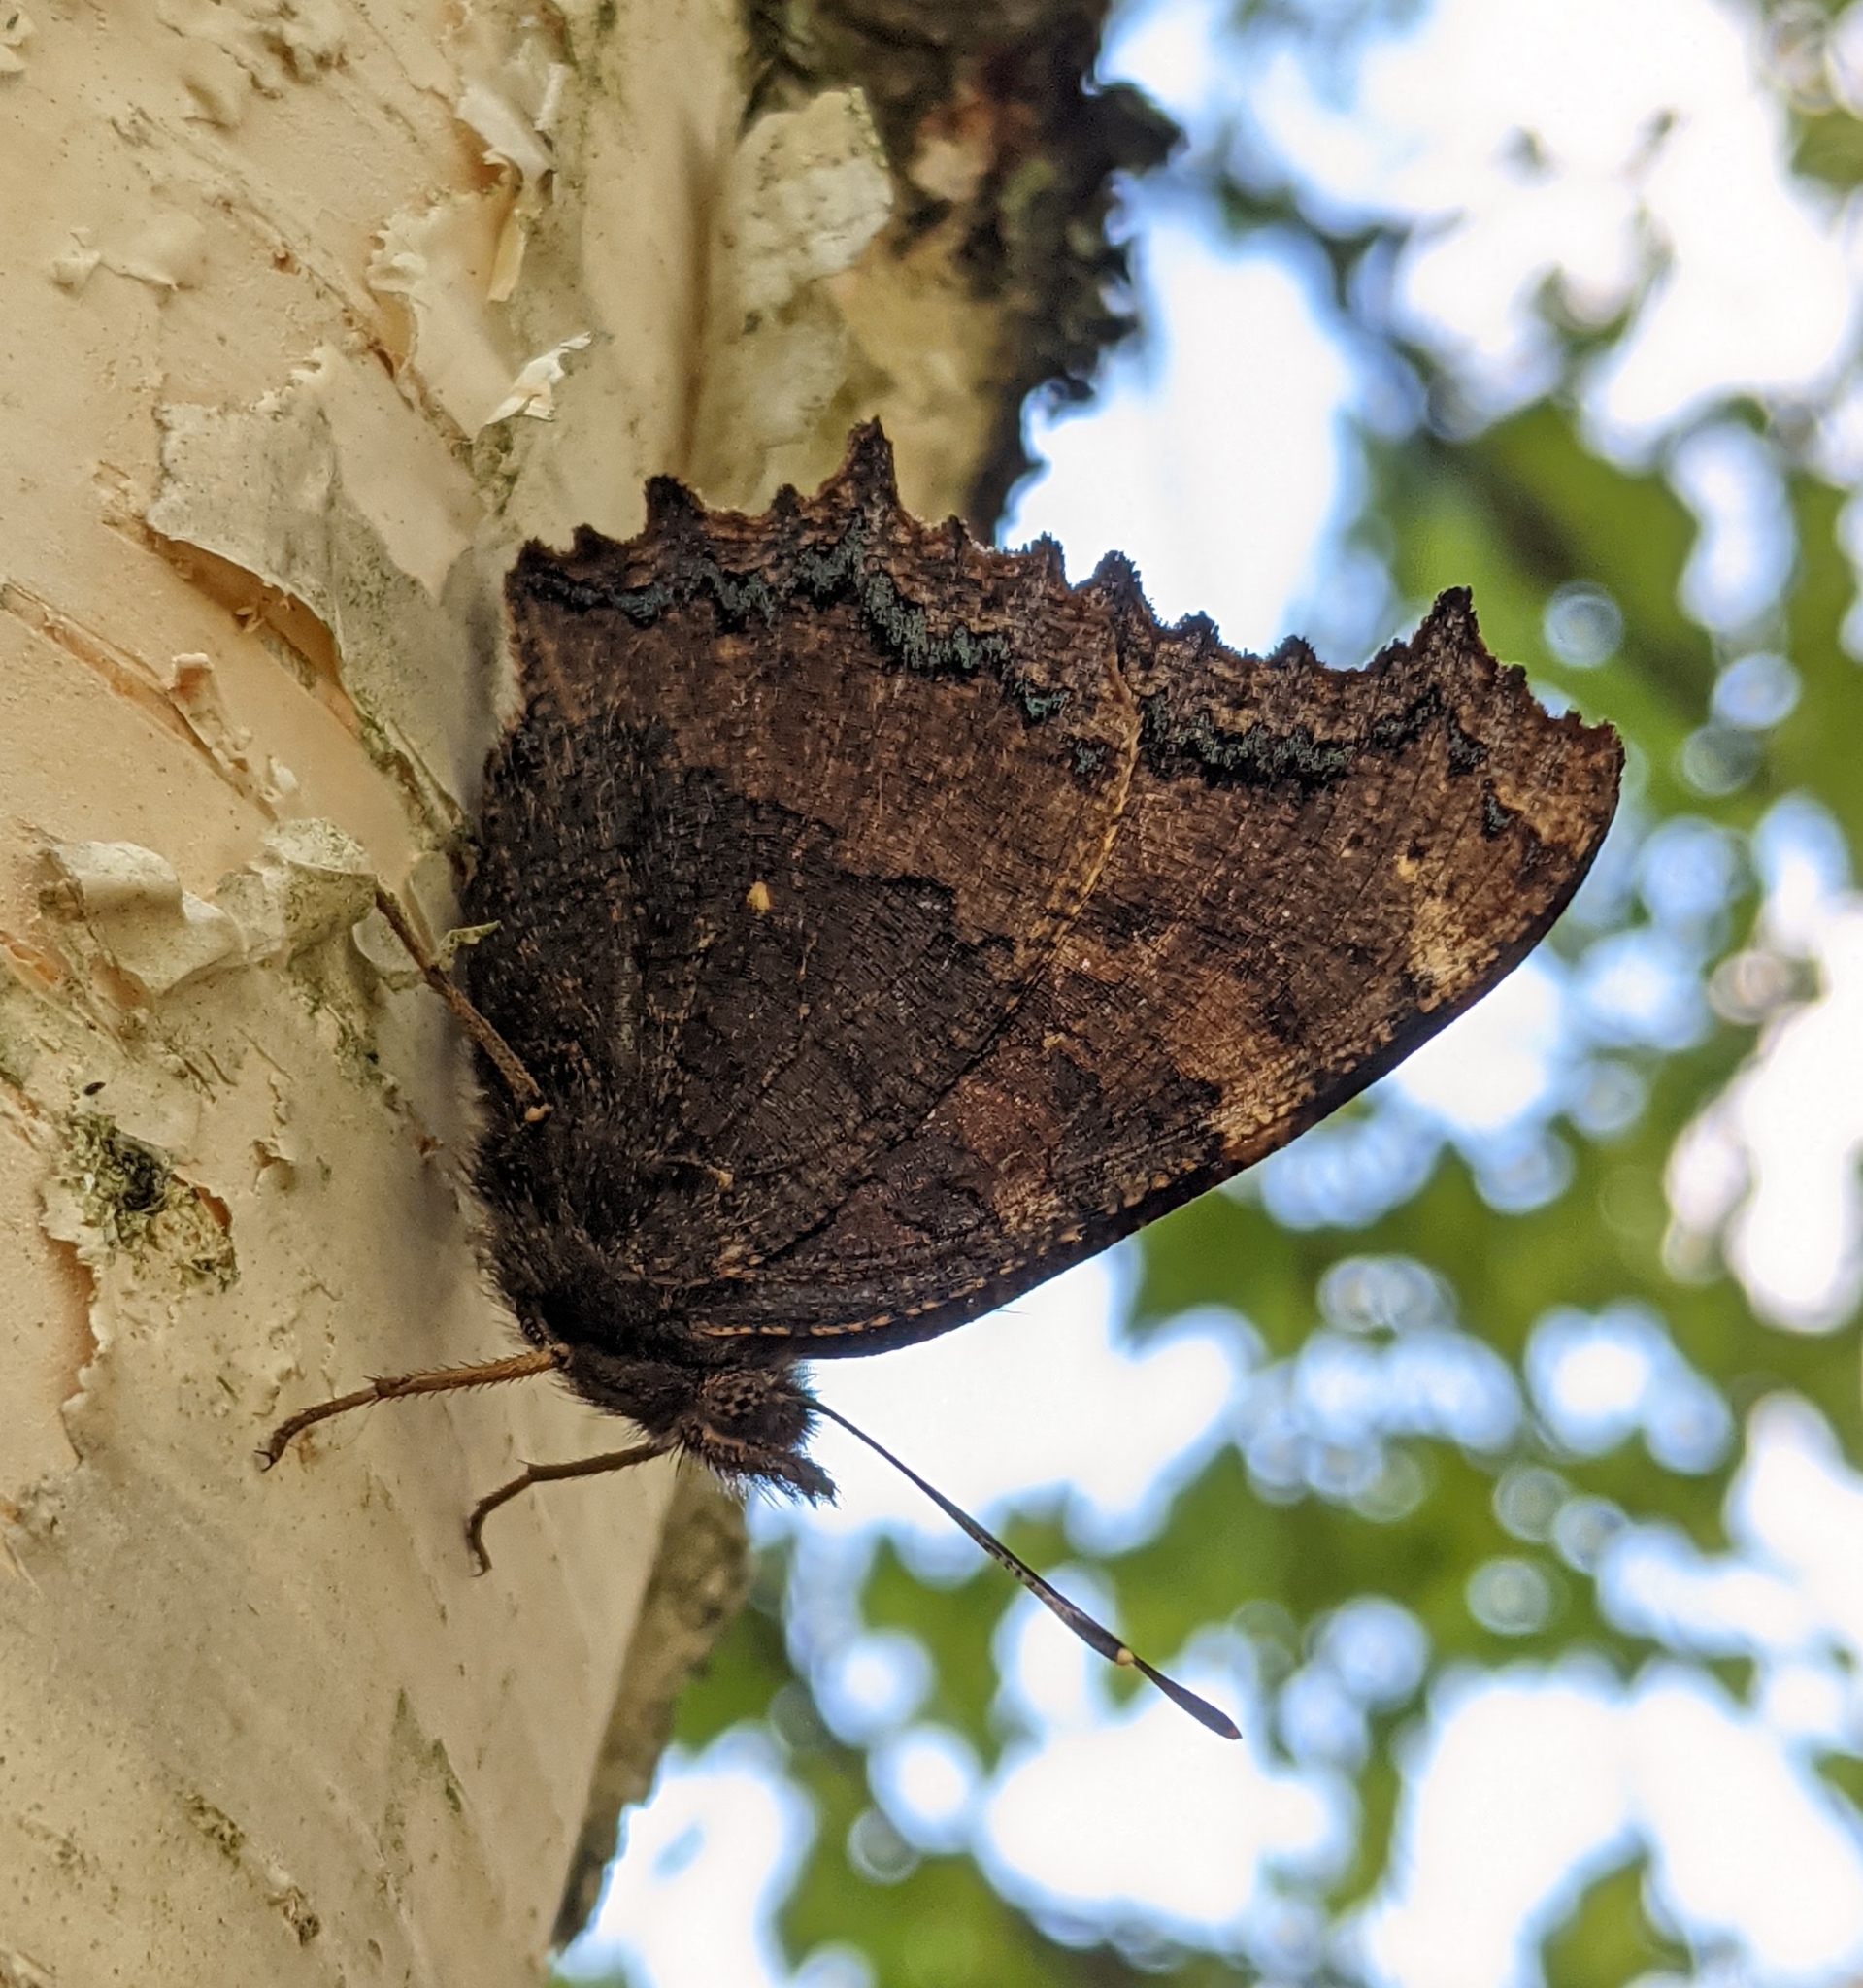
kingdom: Animalia
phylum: Arthropoda
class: Insecta
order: Lepidoptera
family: Nymphalidae
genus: Nymphalis
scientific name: Nymphalis xanthomelas
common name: Scarce tortoiseshell
